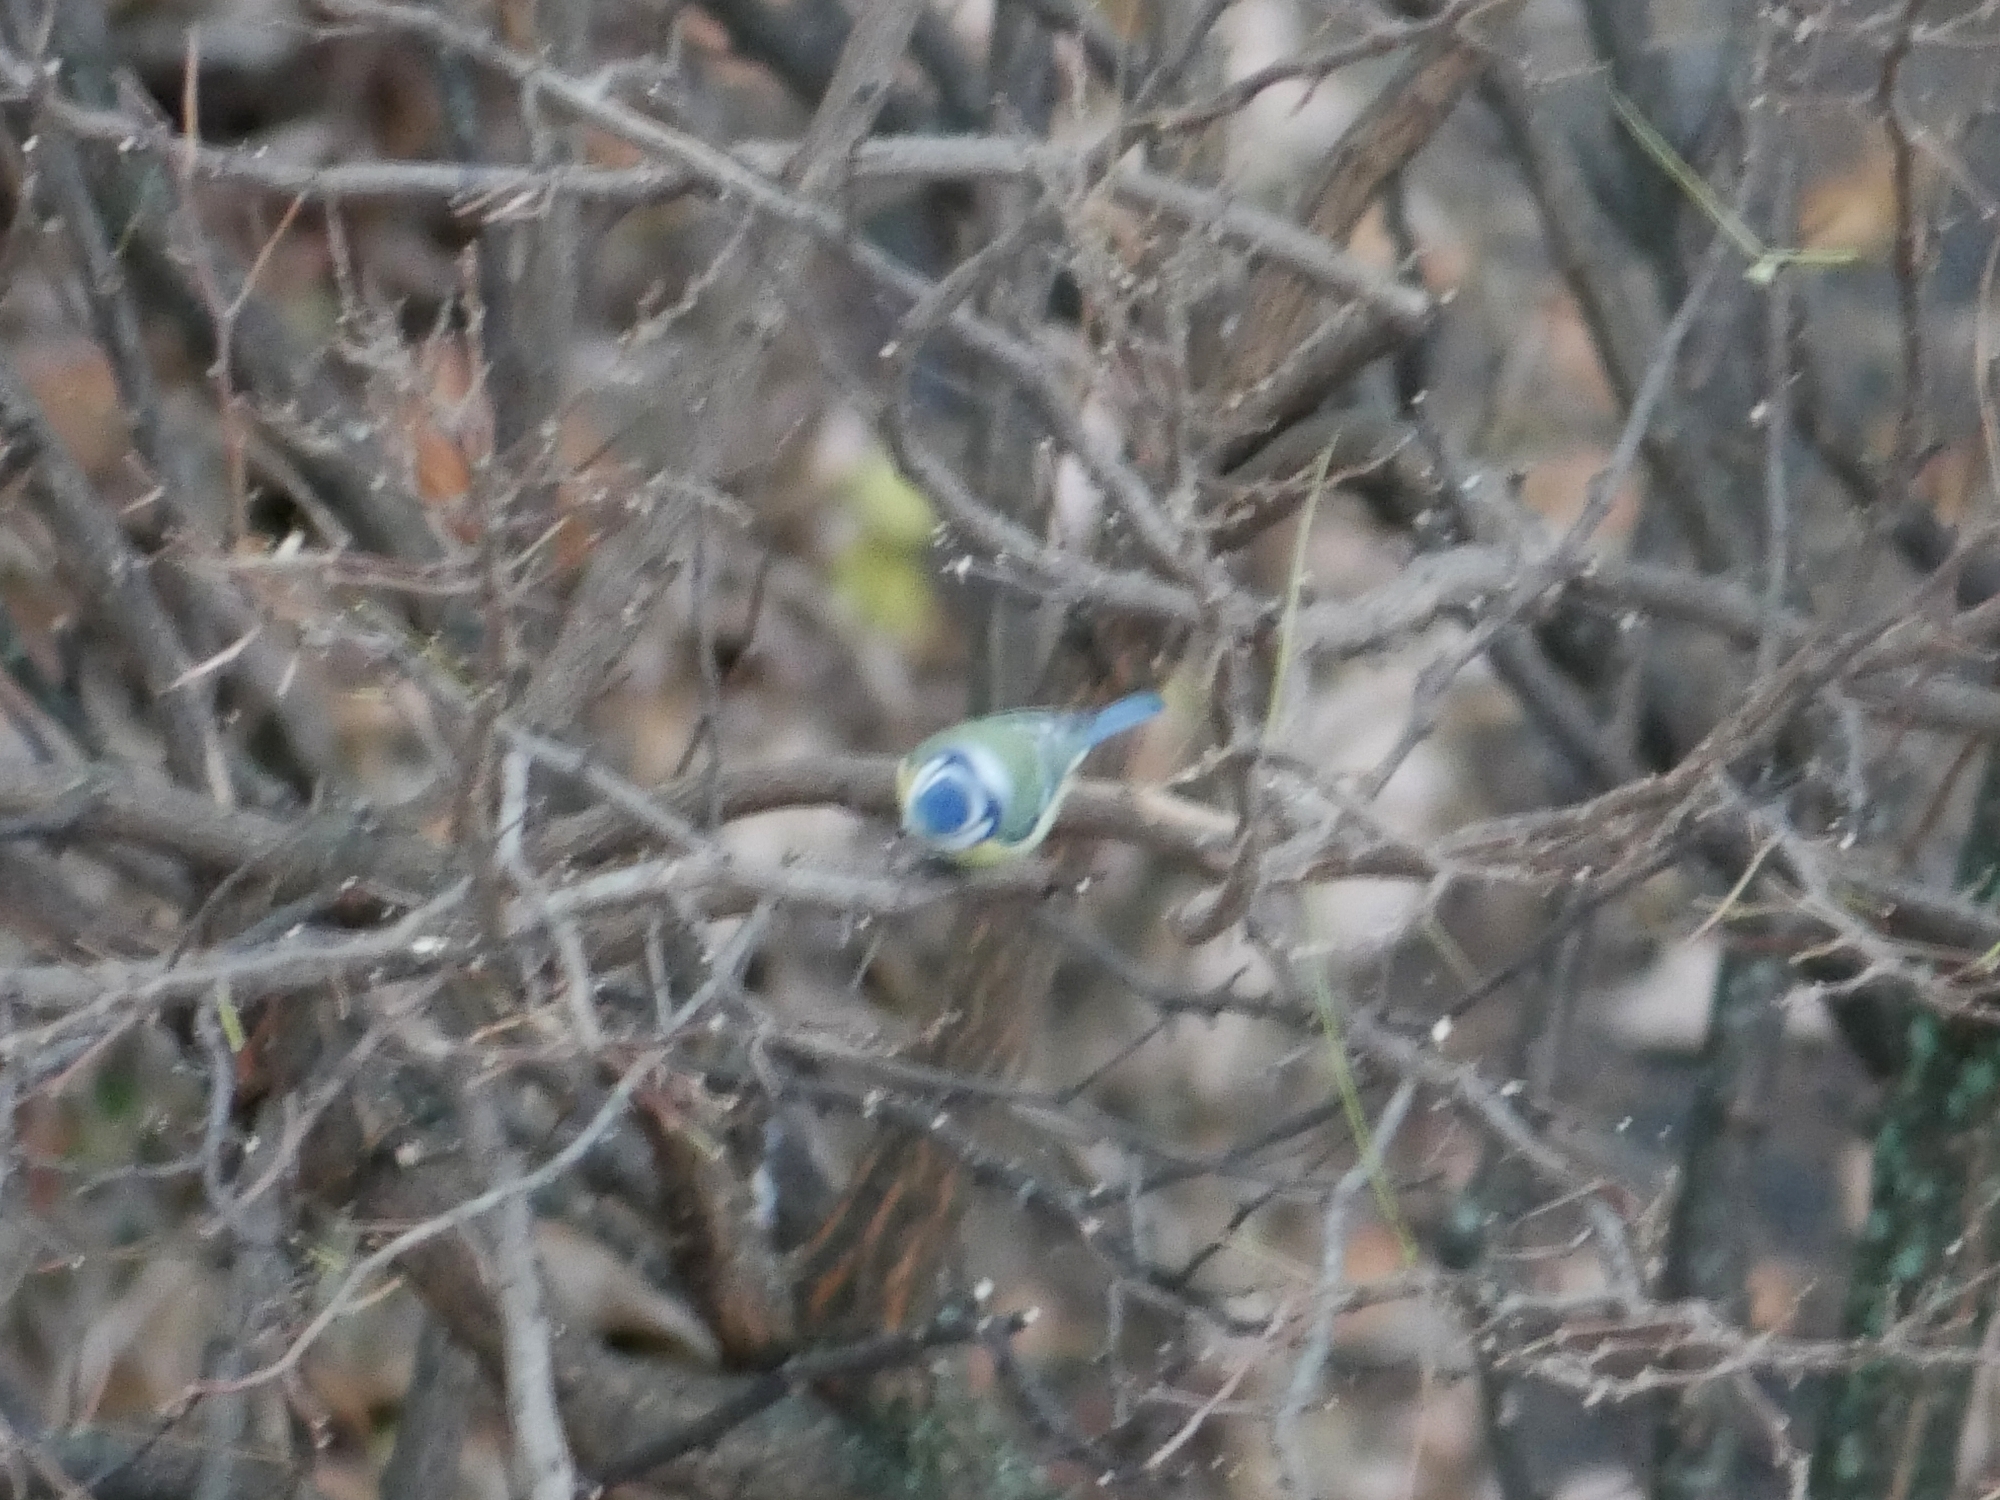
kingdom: Animalia
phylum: Chordata
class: Aves
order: Passeriformes
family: Paridae
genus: Cyanistes
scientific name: Cyanistes caeruleus
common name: Eurasian blue tit
